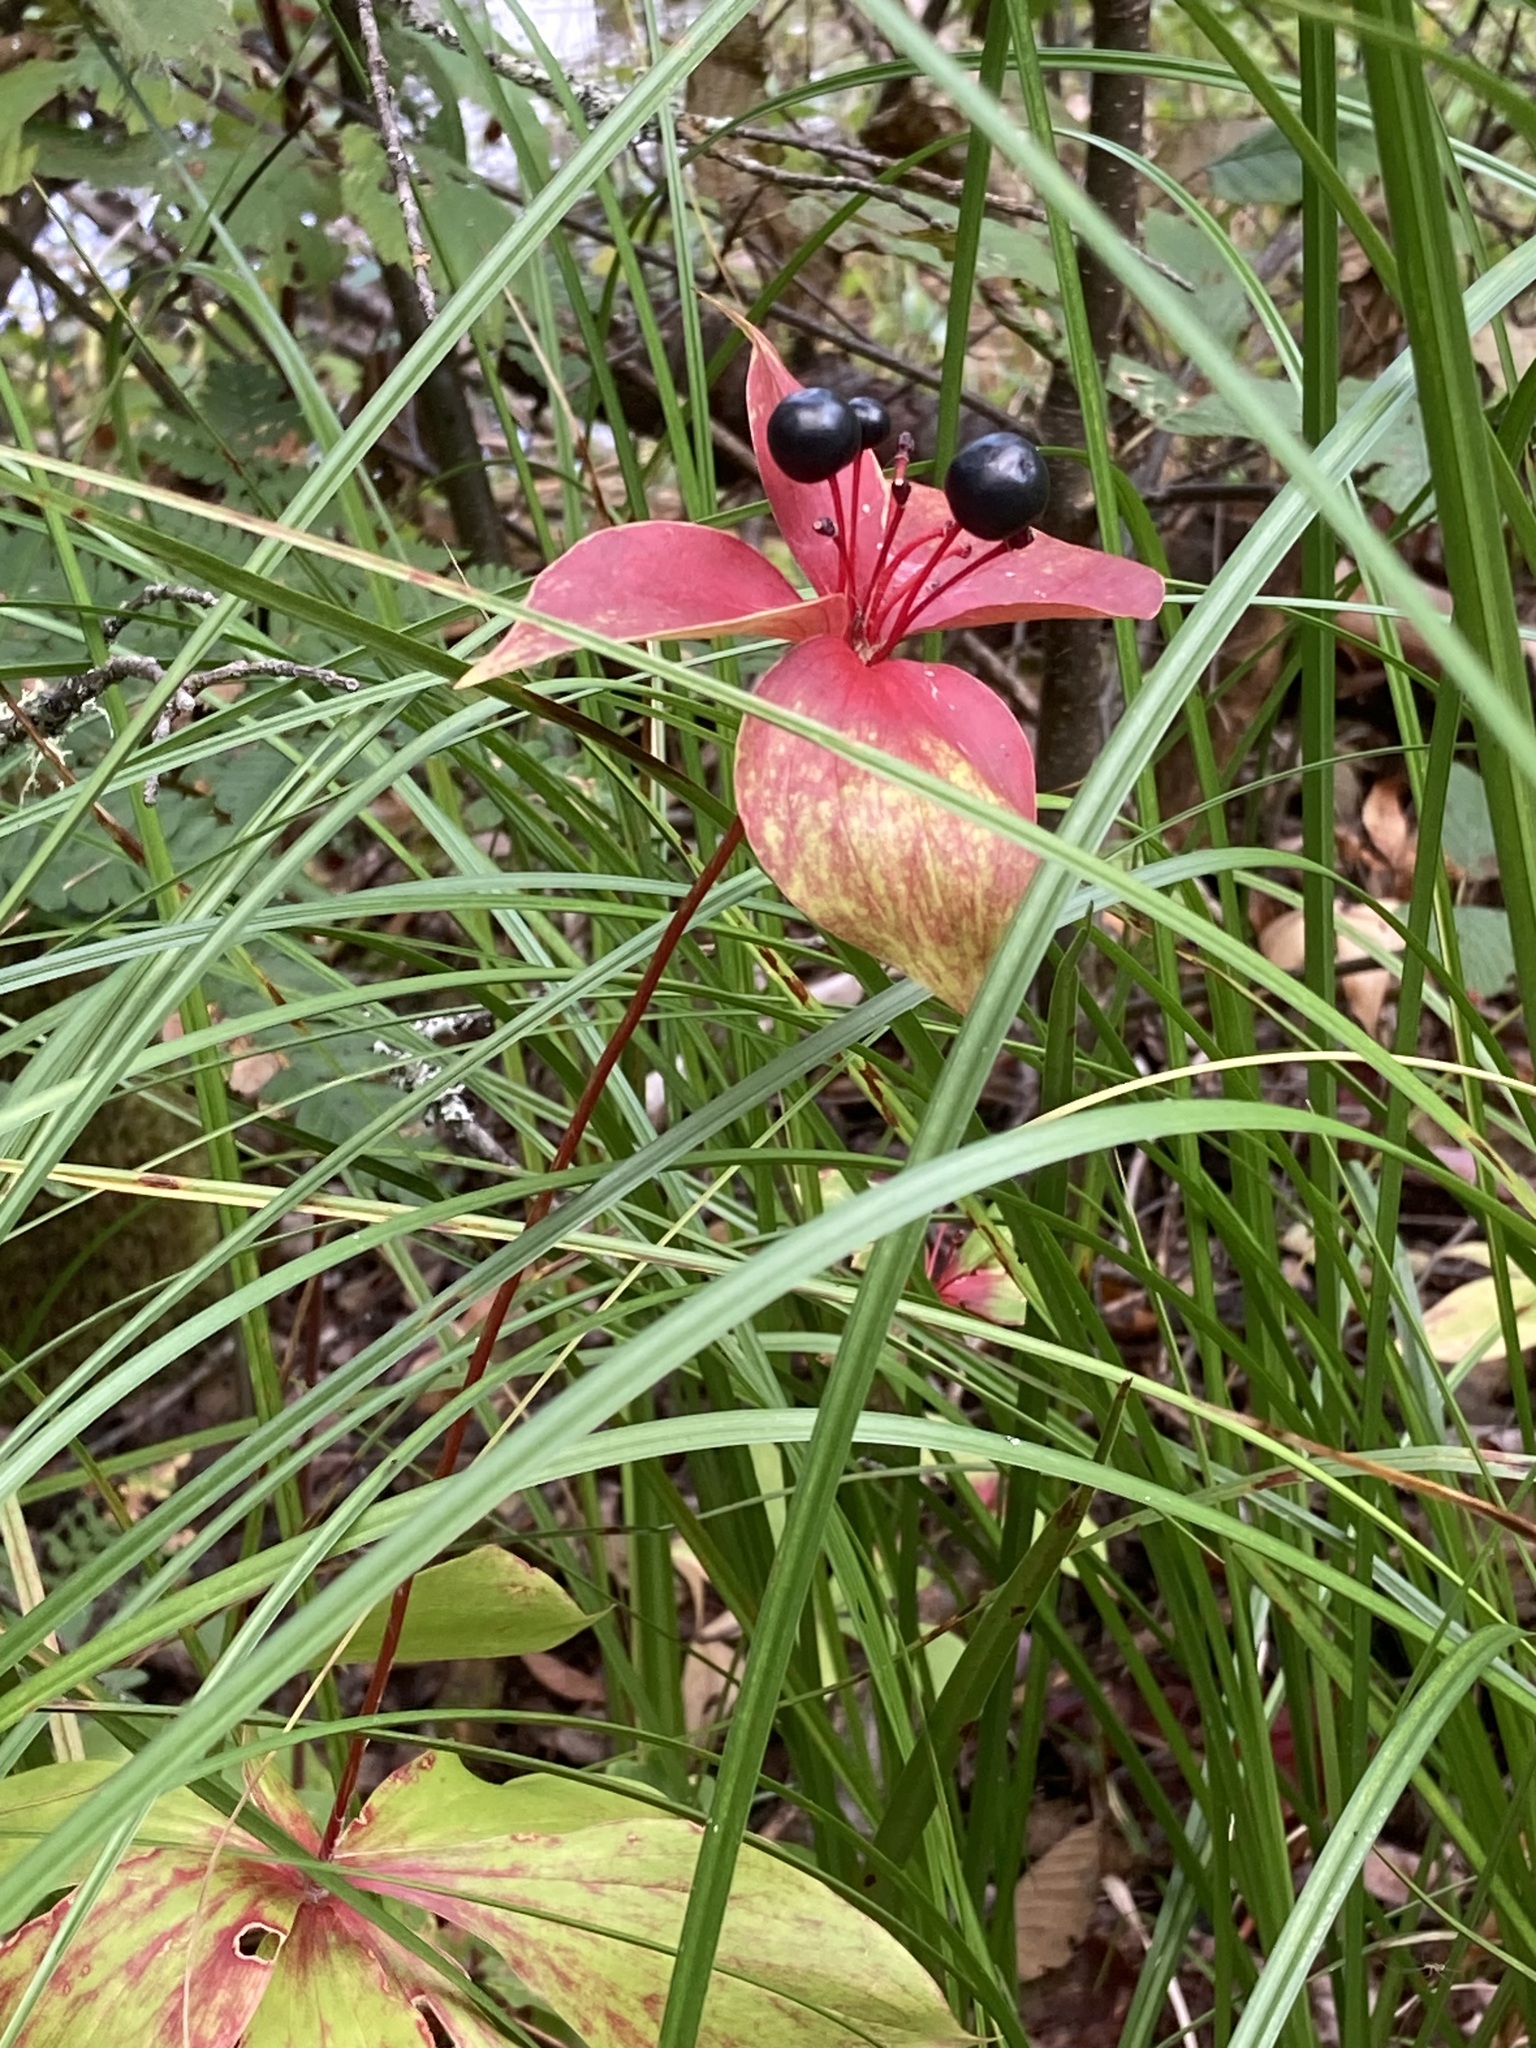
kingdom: Plantae
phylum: Tracheophyta
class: Liliopsida
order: Liliales
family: Liliaceae
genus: Medeola
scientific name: Medeola virginiana
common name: Indian cucumber-root
